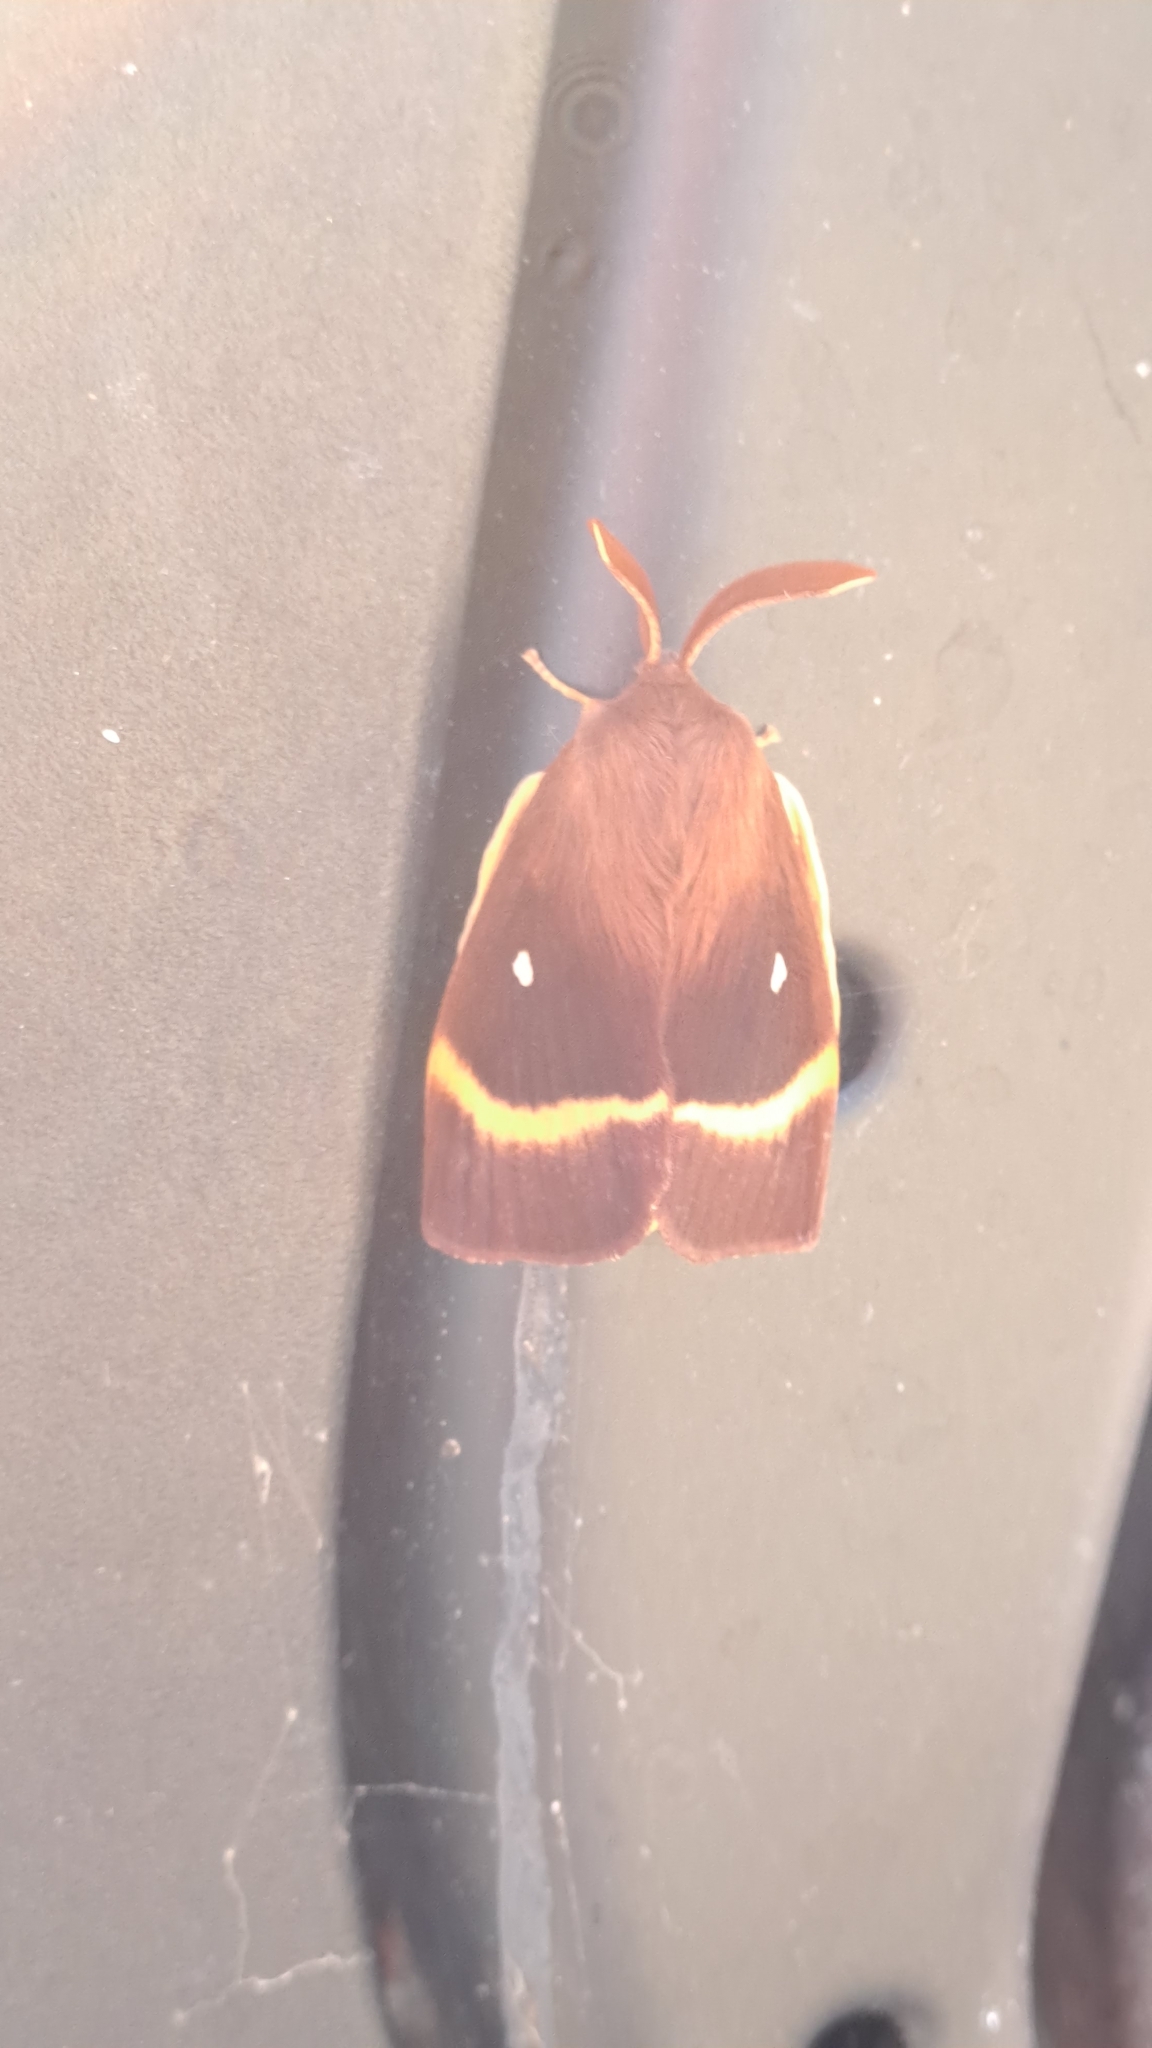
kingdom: Animalia
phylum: Arthropoda
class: Insecta
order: Lepidoptera
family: Lasiocampidae
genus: Lasiocampa
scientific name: Lasiocampa quercus
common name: Oak eggar
